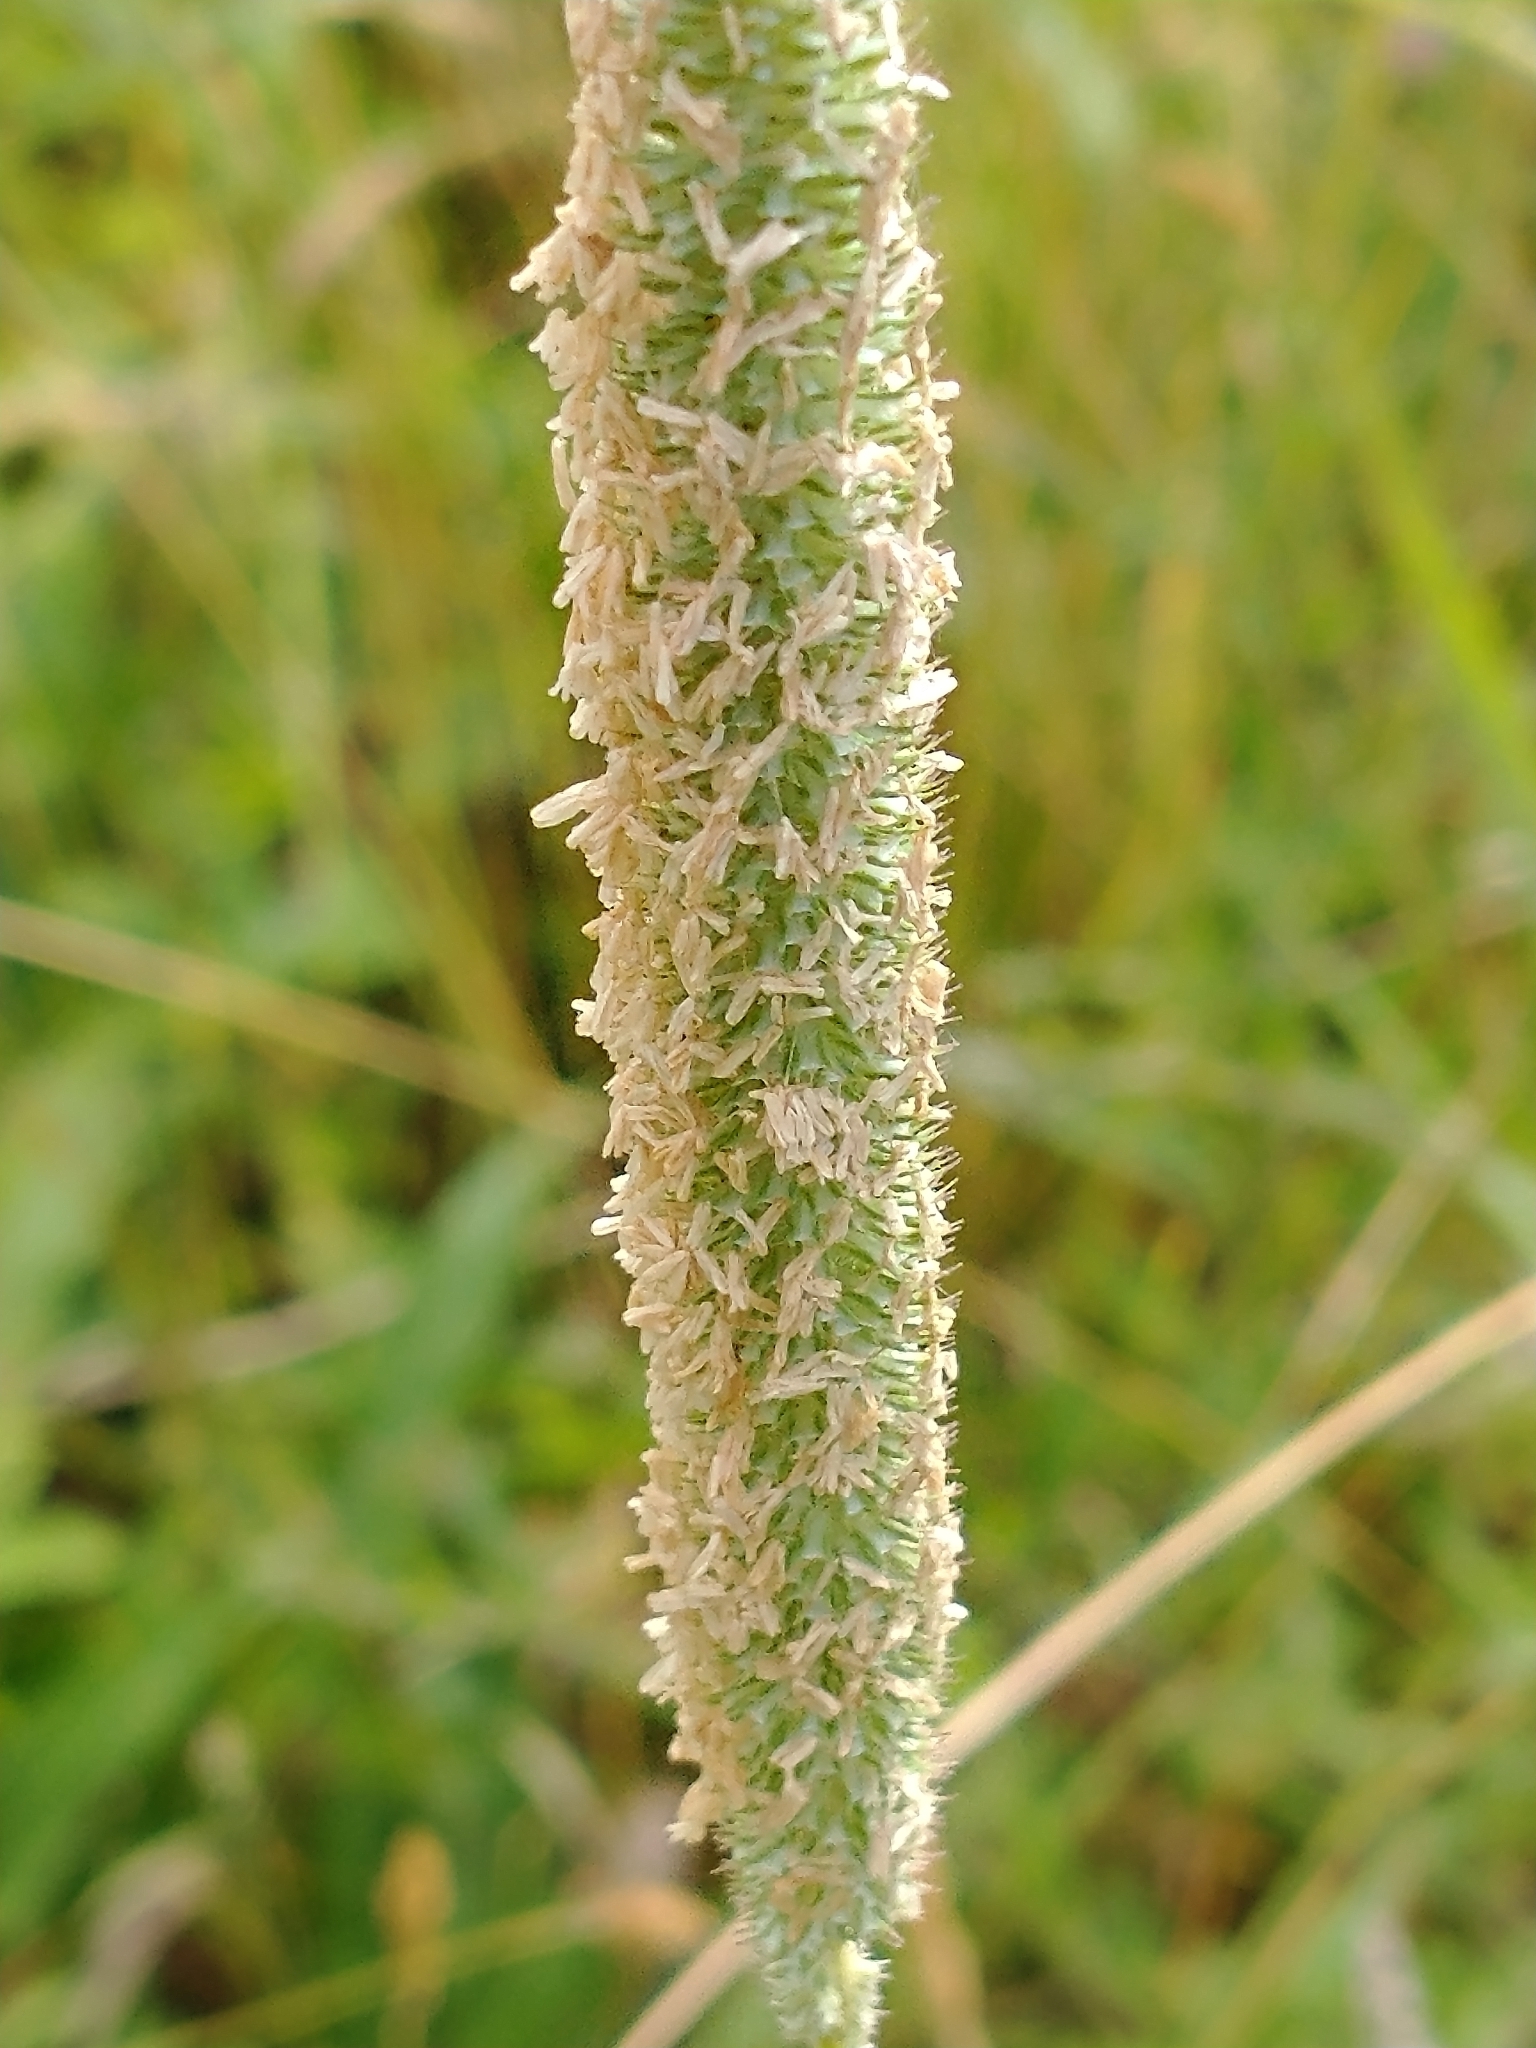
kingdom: Plantae
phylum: Tracheophyta
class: Liliopsida
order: Poales
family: Poaceae
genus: Phleum
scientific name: Phleum pratense
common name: Timothy grass
